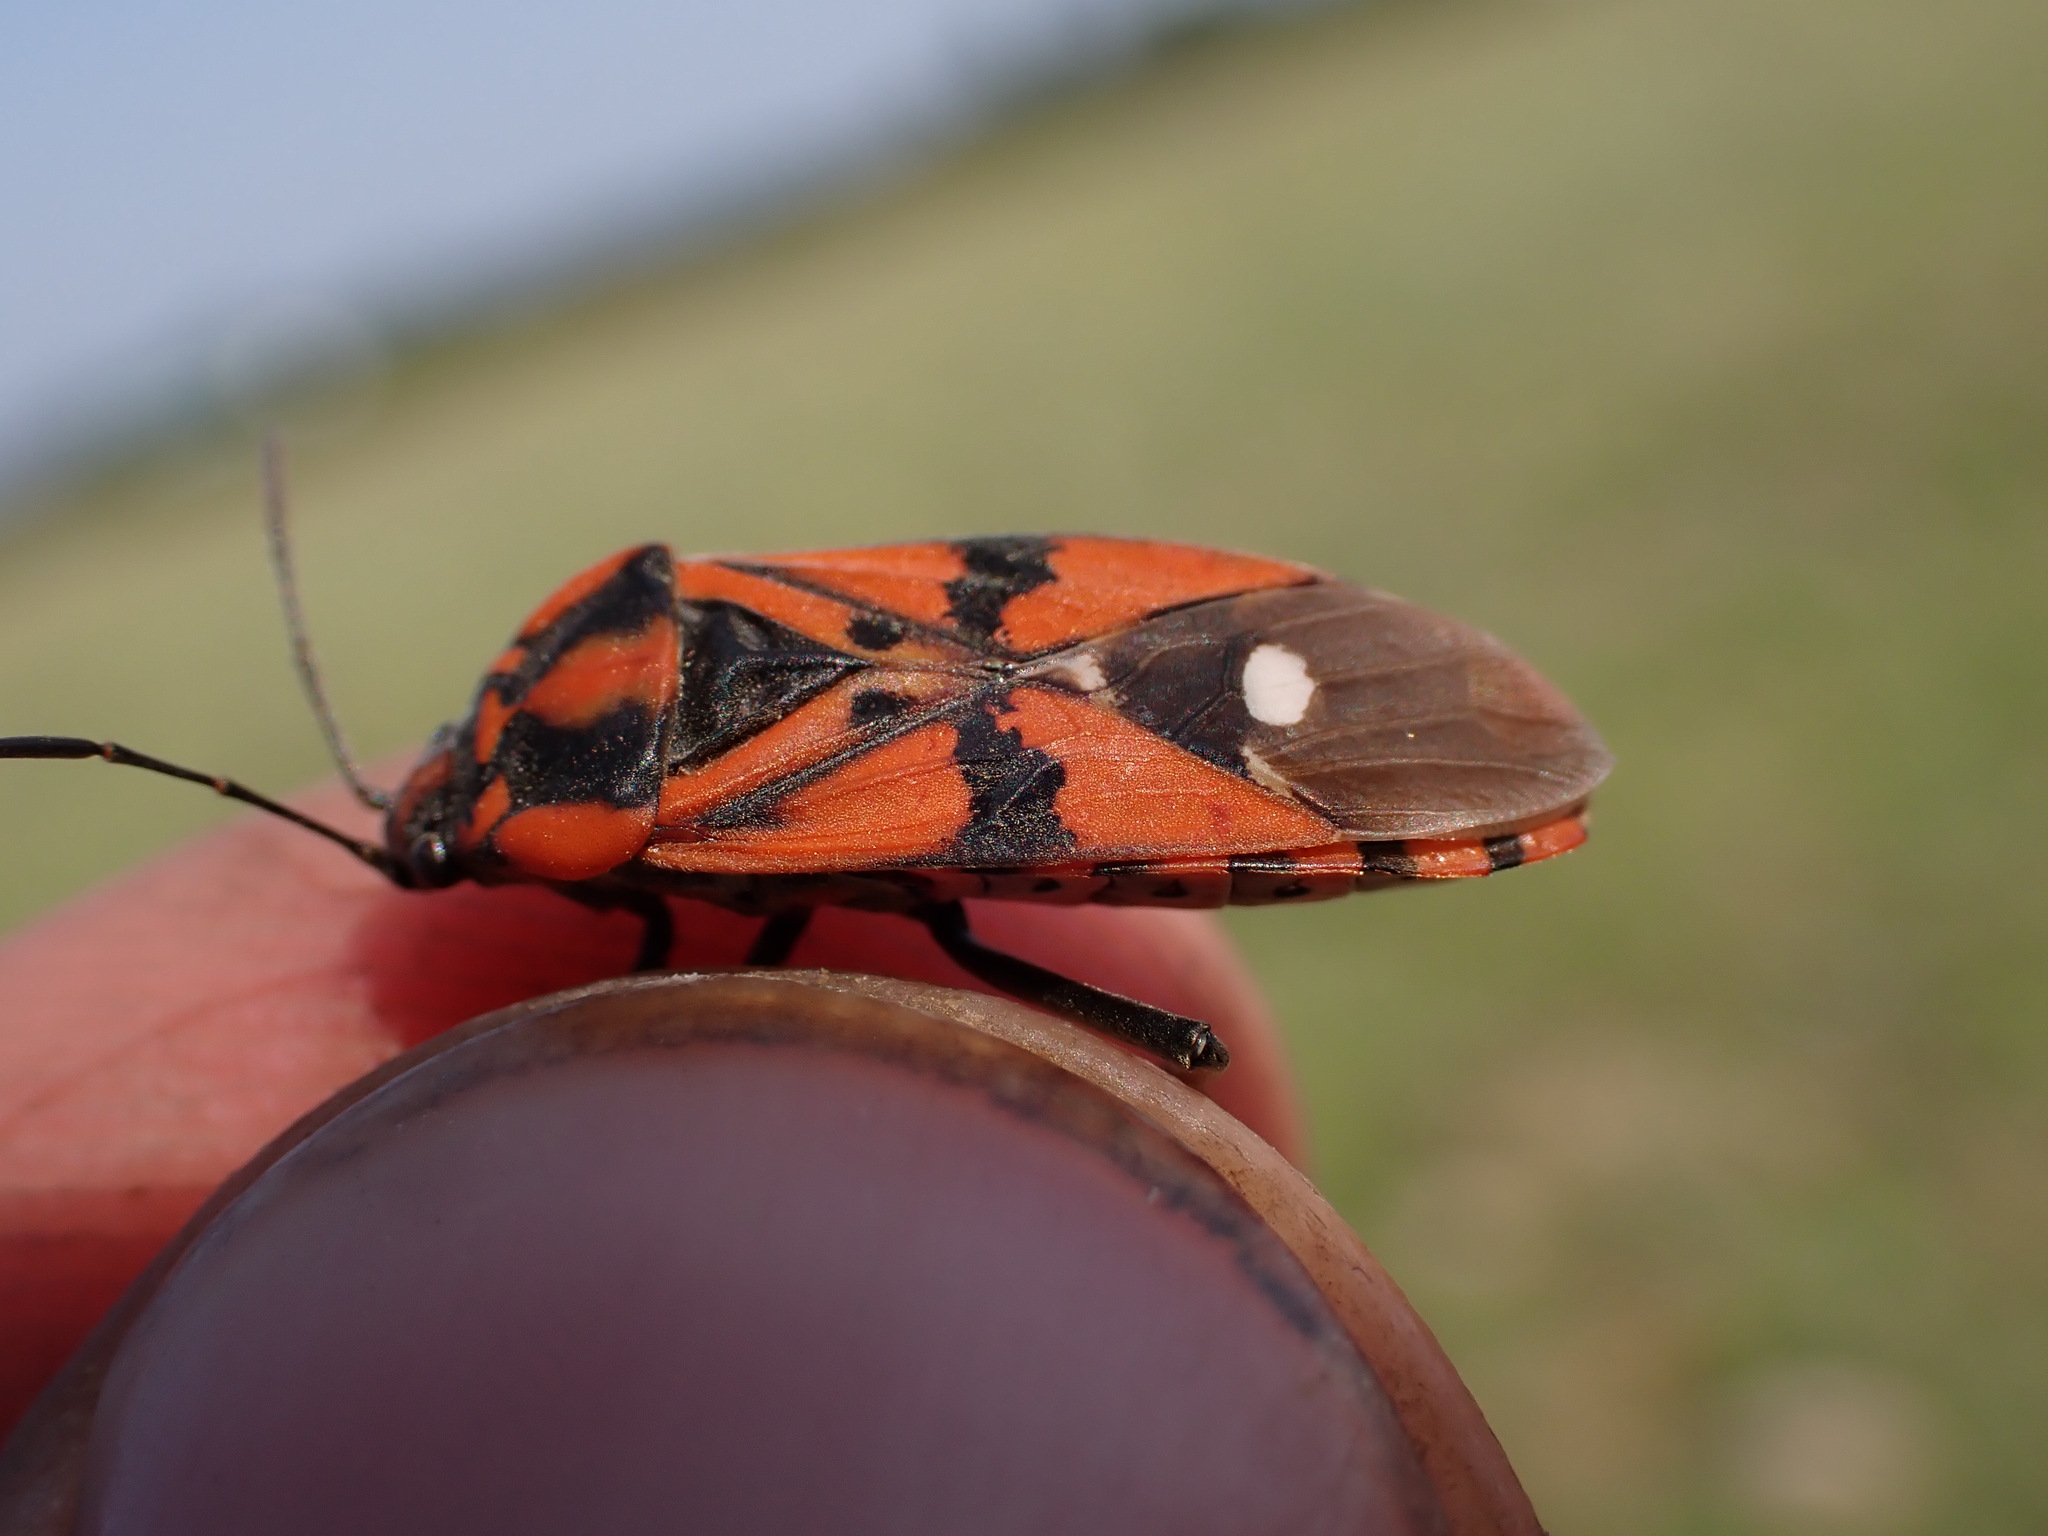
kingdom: Animalia
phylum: Arthropoda
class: Insecta
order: Hemiptera
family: Lygaeidae
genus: Spilostethus
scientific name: Spilostethus pandurus
